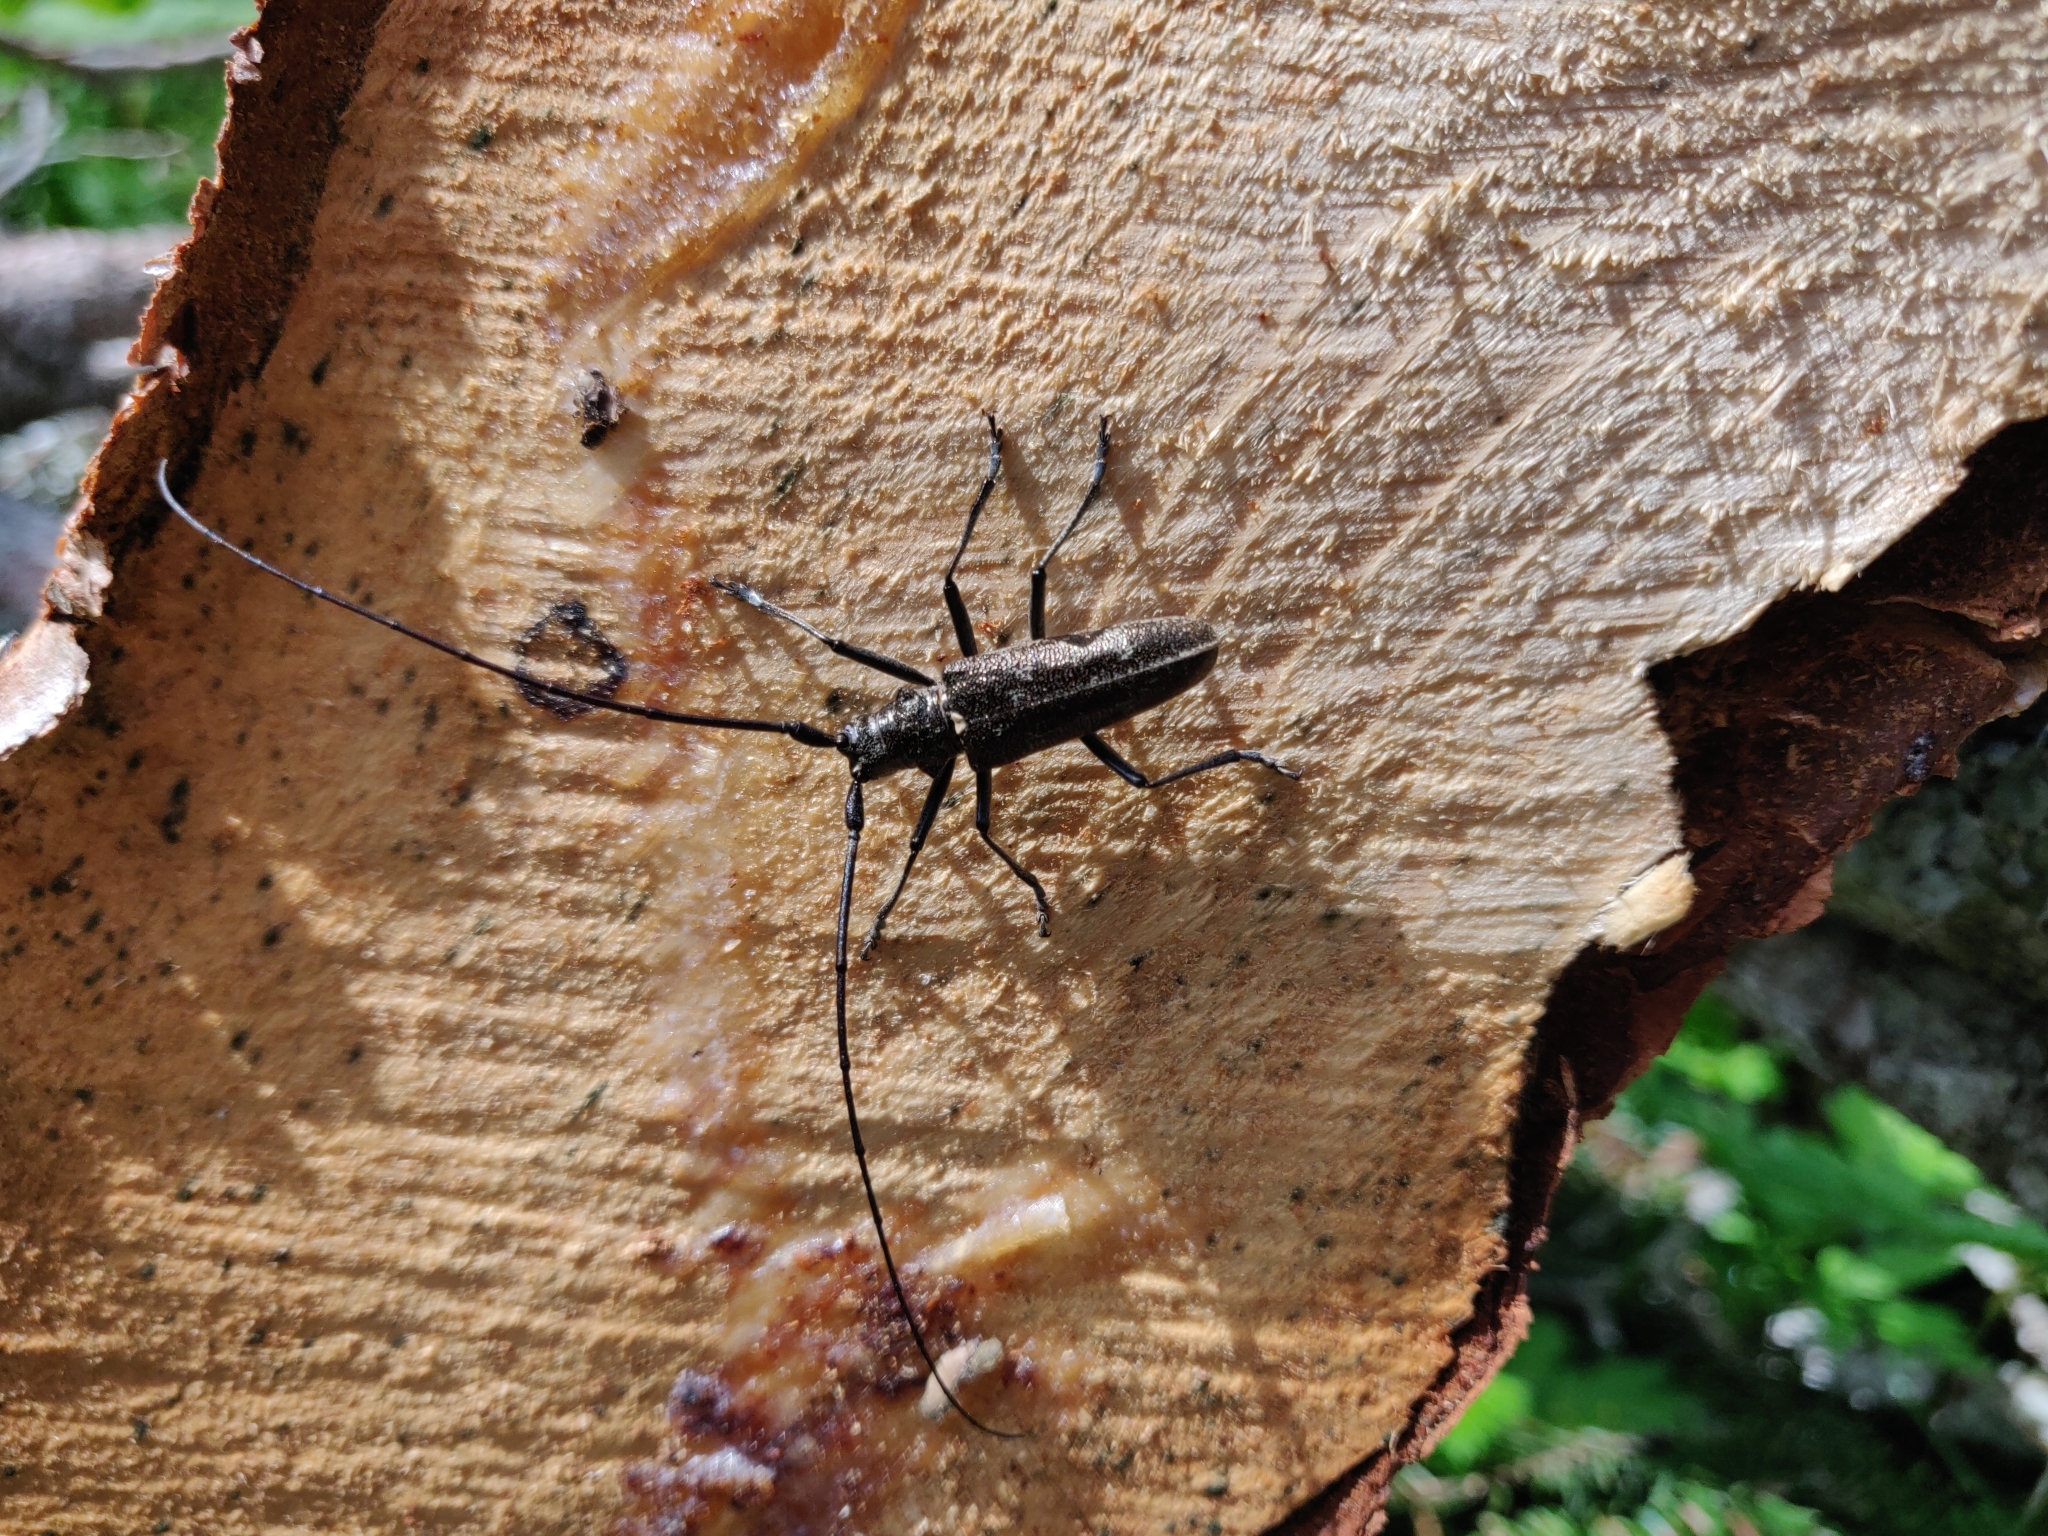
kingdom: Animalia
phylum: Arthropoda
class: Insecta
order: Coleoptera
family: Cerambycidae
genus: Monochamus
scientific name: Monochamus sartor
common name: Pine sawyer
